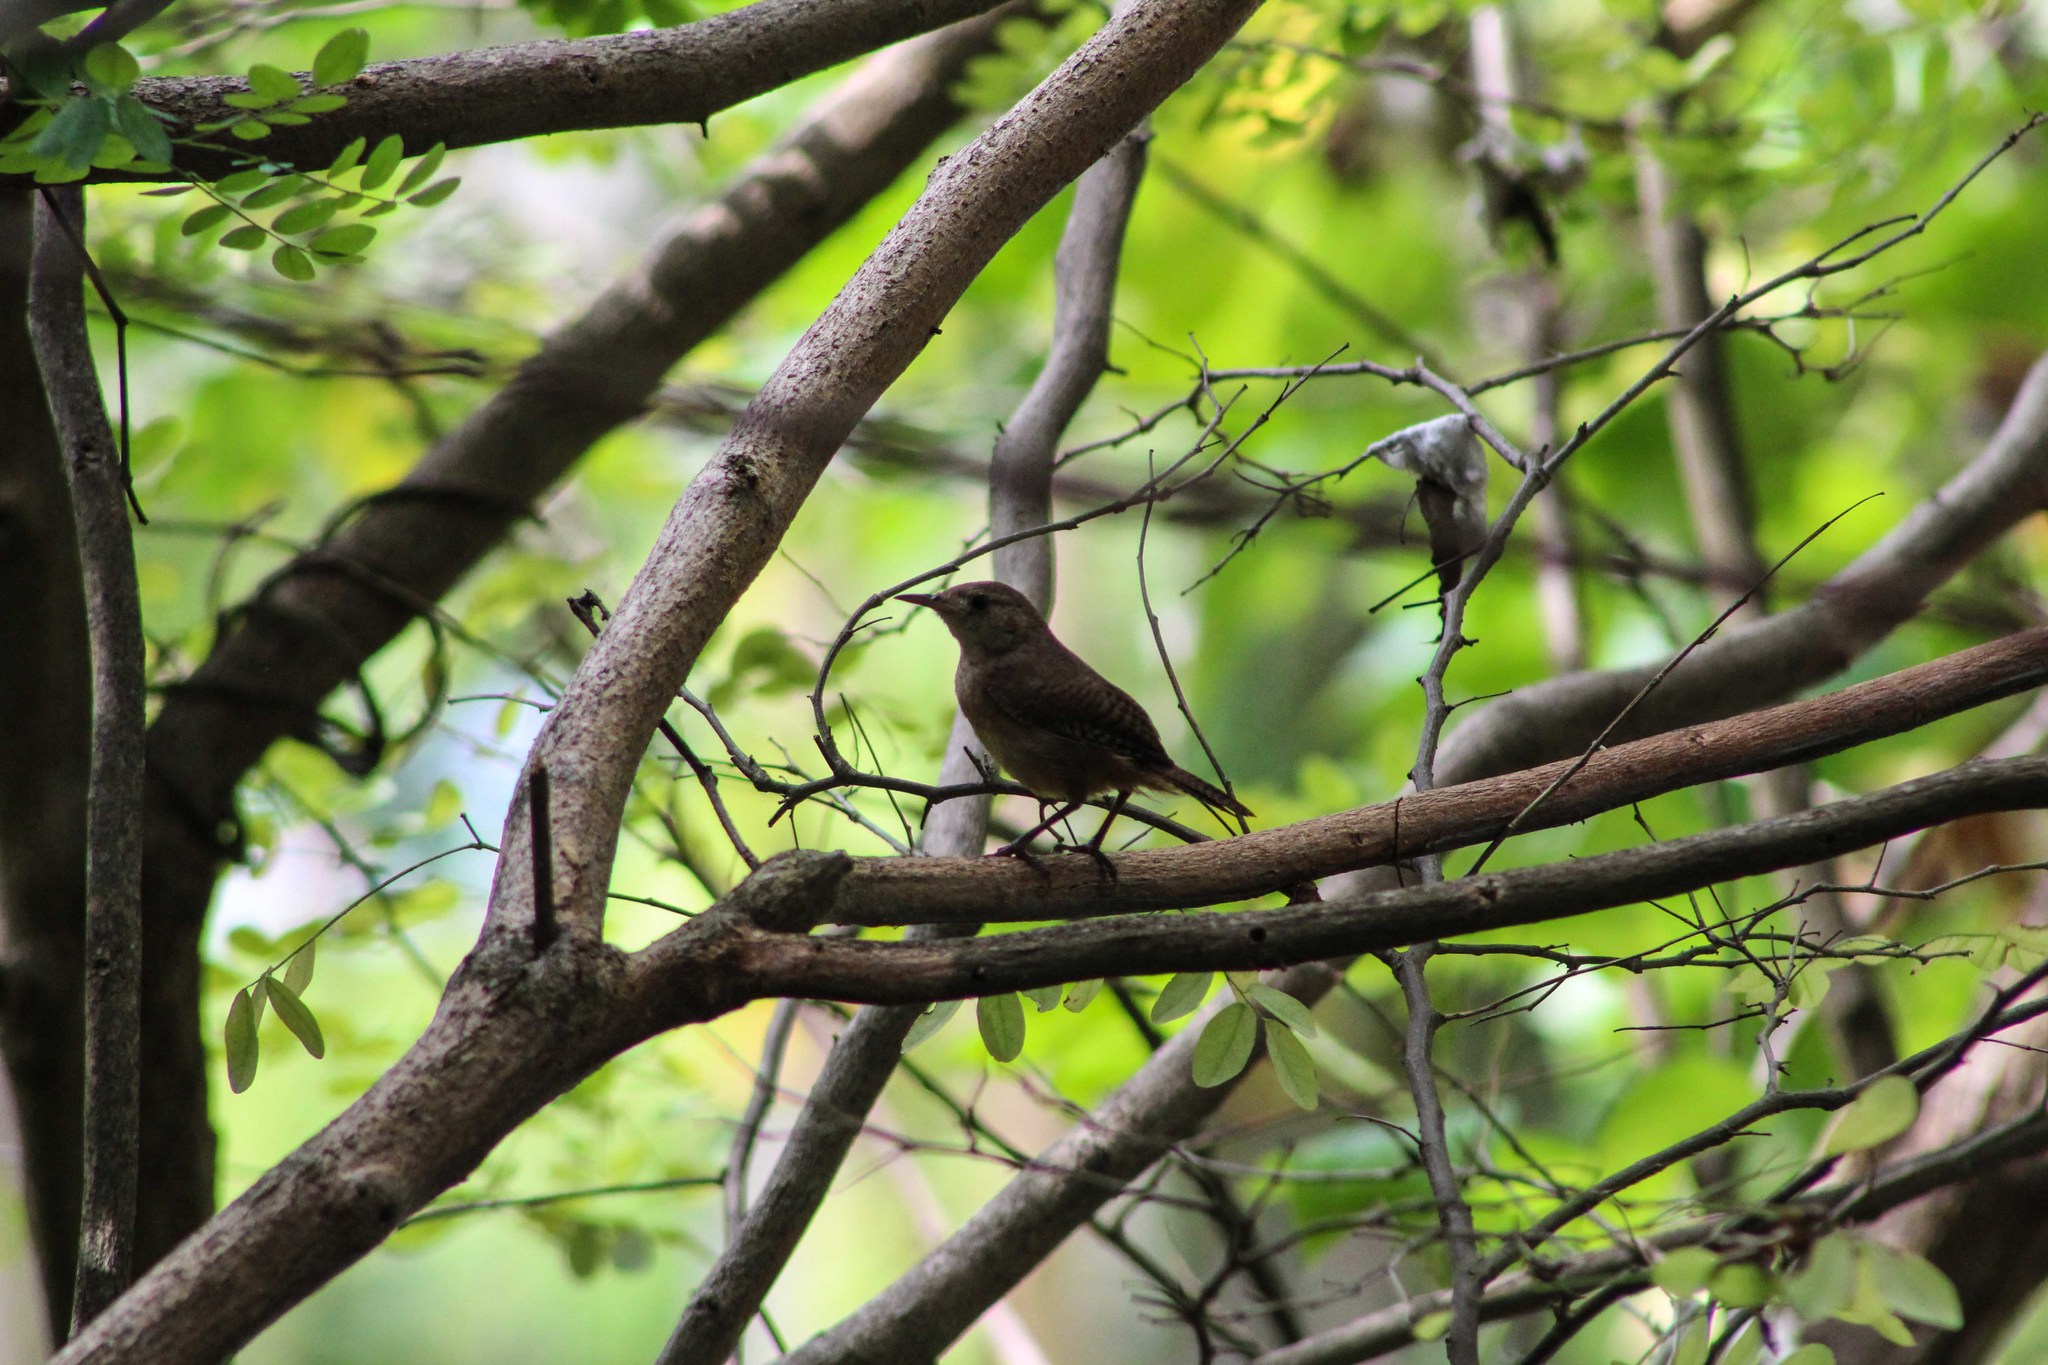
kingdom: Animalia
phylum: Chordata
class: Aves
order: Passeriformes
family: Troglodytidae
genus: Troglodytes
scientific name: Troglodytes aedon
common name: House wren
